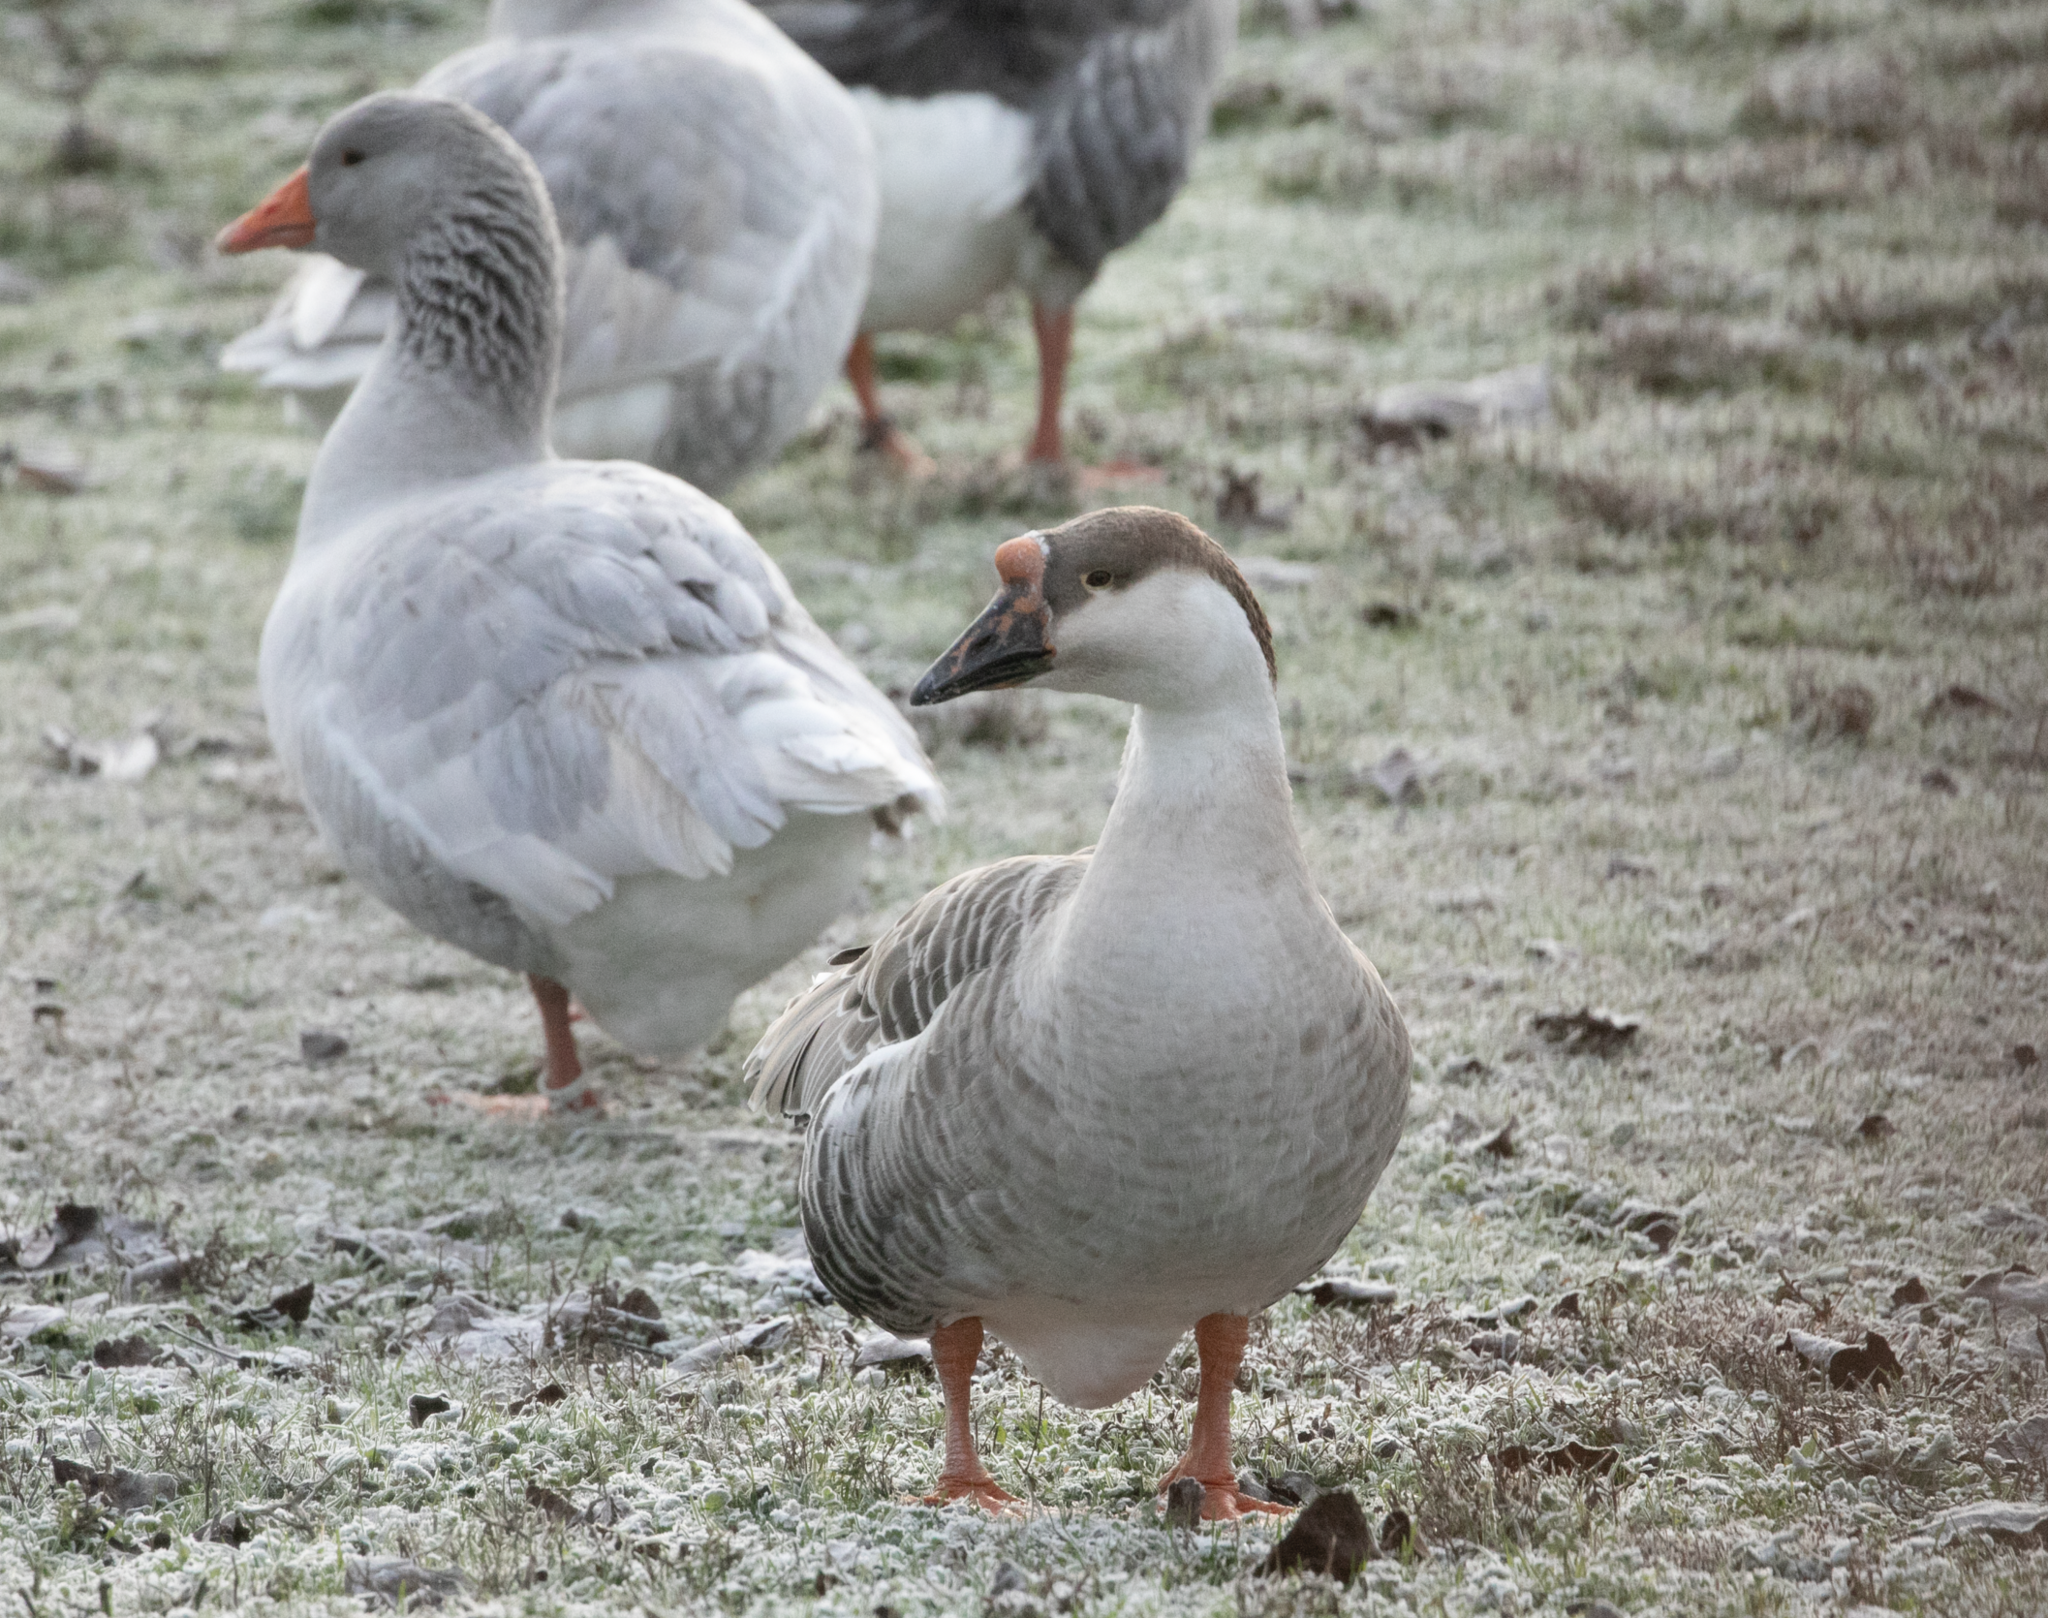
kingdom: Animalia
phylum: Chordata
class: Aves
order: Anseriformes
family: Anatidae
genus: Anser
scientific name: Anser cygnoides
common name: Swan goose
